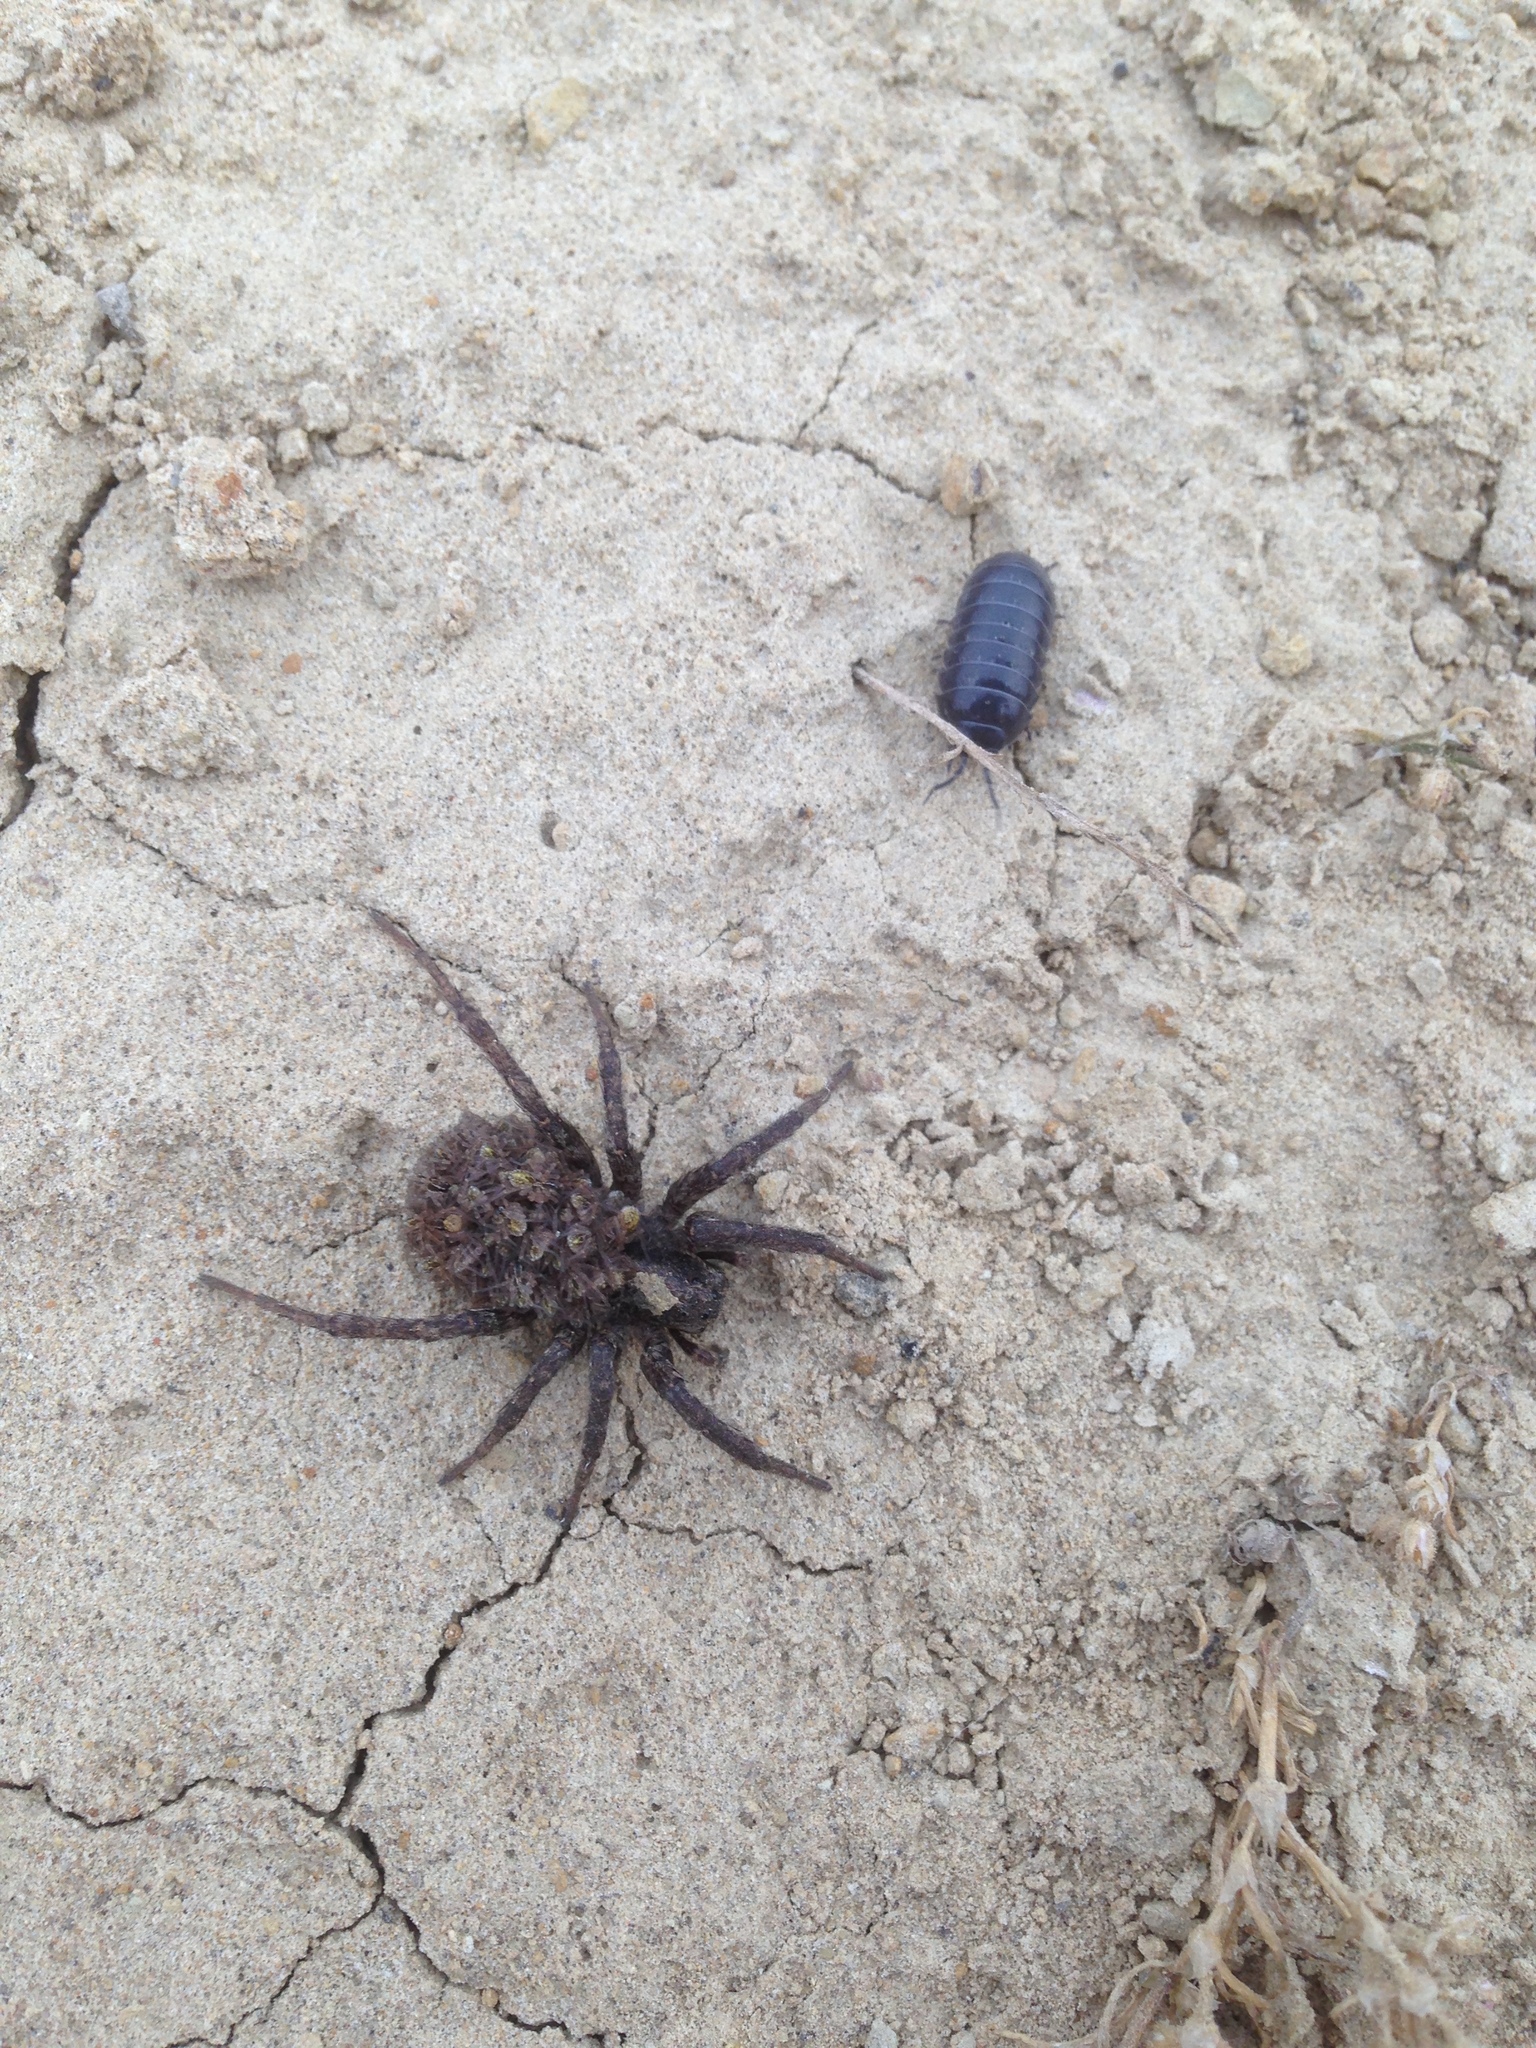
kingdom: Animalia
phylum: Arthropoda
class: Malacostraca
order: Isopoda
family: Armadillidiidae
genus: Armadillidium
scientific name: Armadillidium vulgare
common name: Common pill woodlouse
